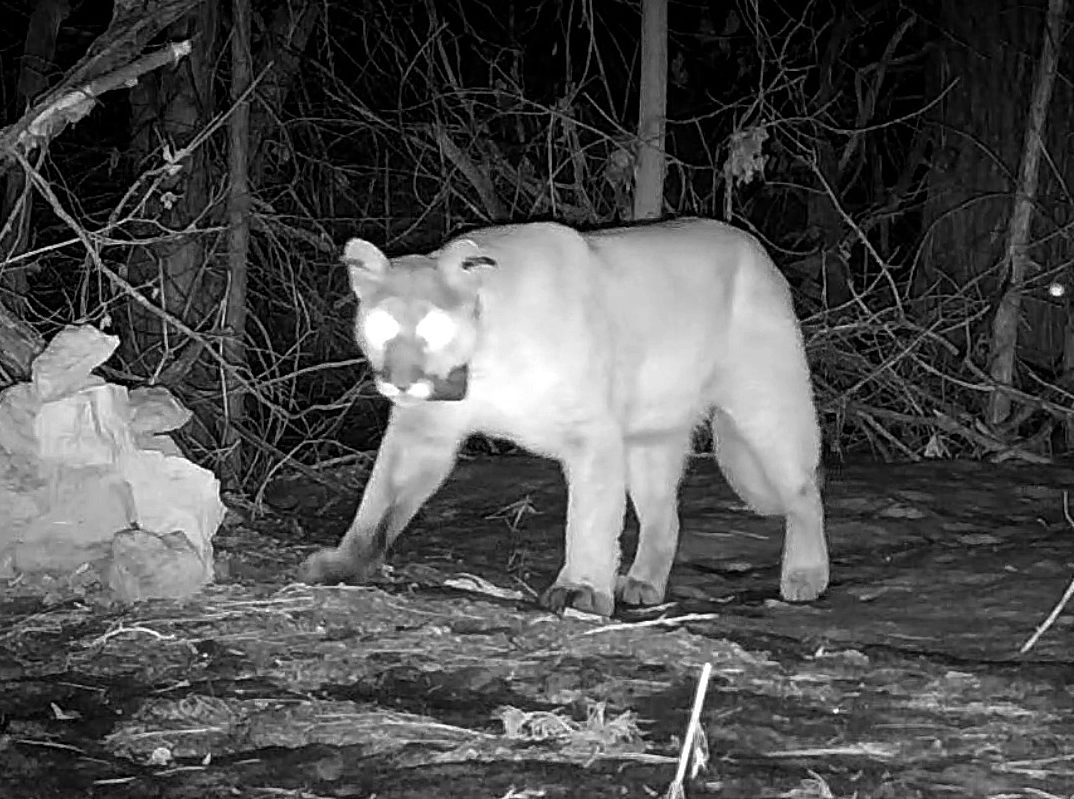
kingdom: Animalia
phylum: Chordata
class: Mammalia
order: Carnivora
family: Felidae
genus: Puma
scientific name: Puma concolor
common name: Puma
